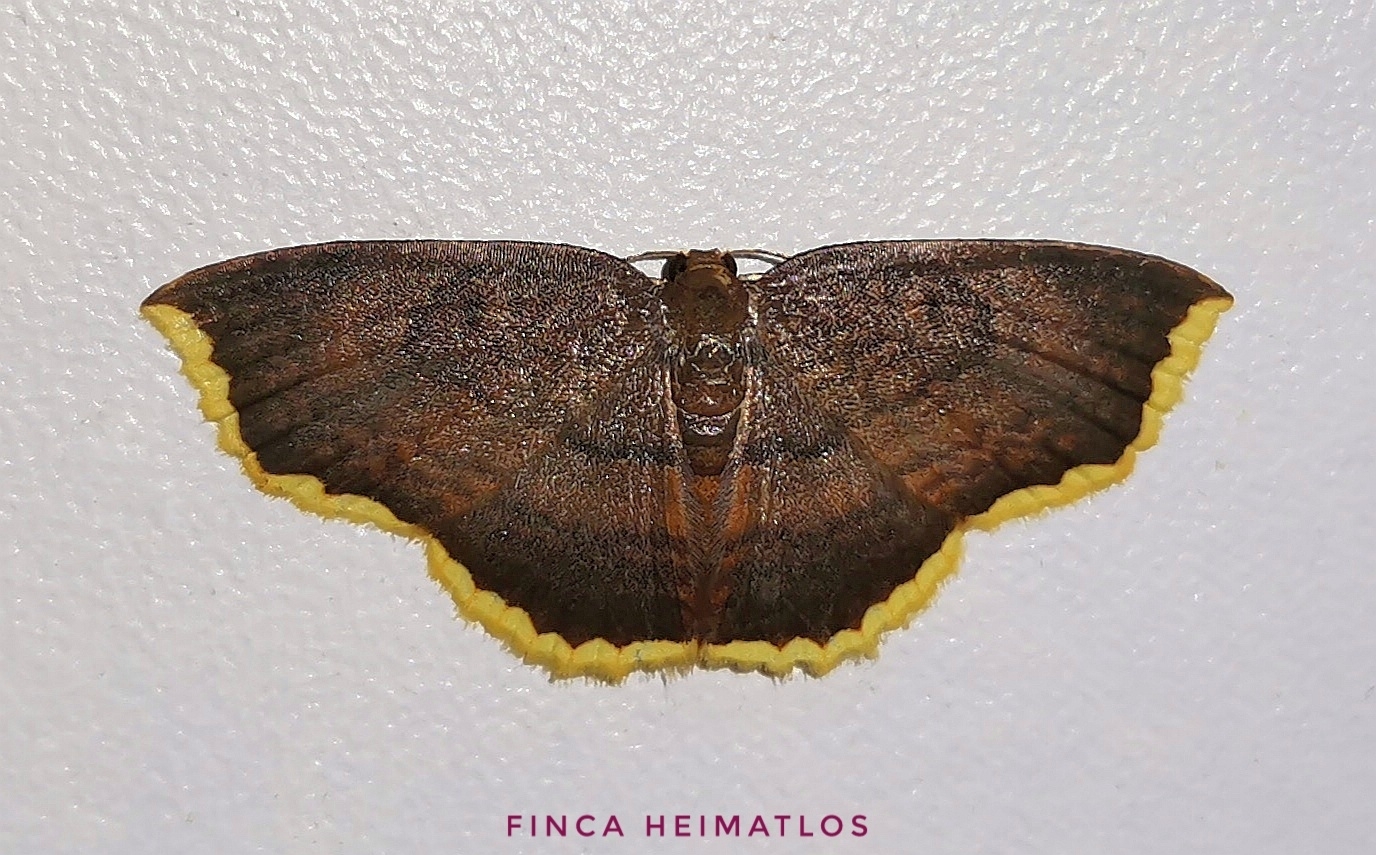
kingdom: Animalia
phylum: Arthropoda
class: Insecta
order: Lepidoptera
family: Geometridae
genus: Eois
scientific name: Eois catana
